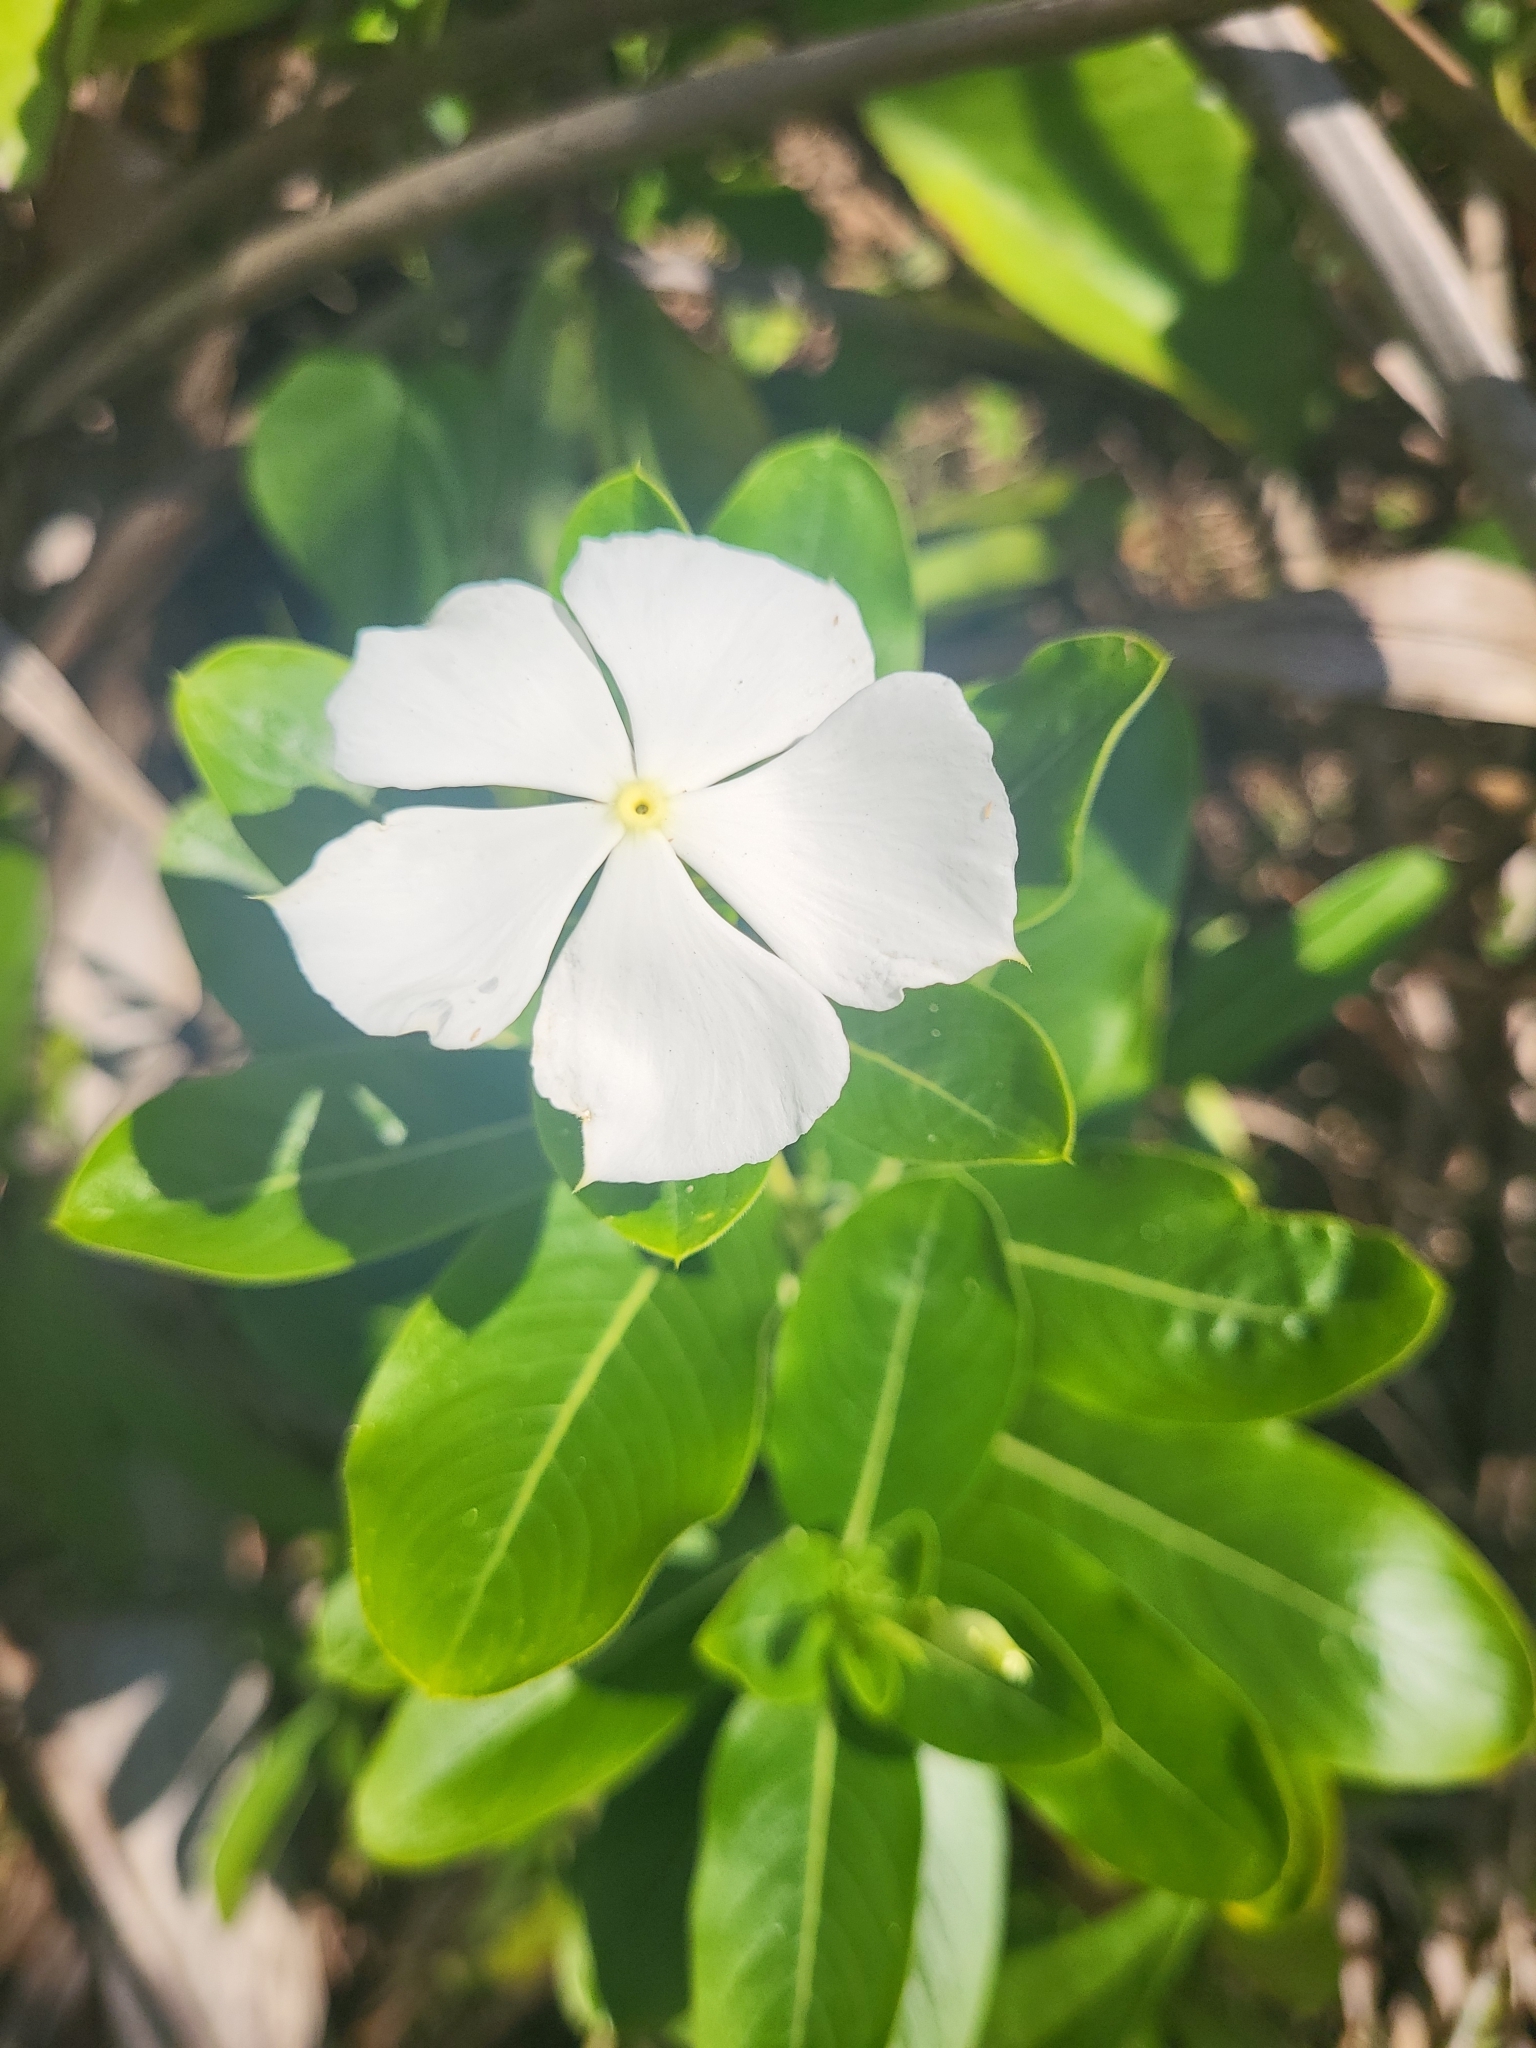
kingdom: Plantae
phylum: Tracheophyta
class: Magnoliopsida
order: Gentianales
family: Apocynaceae
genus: Catharanthus
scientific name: Catharanthus roseus
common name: Madagascar periwinkle
